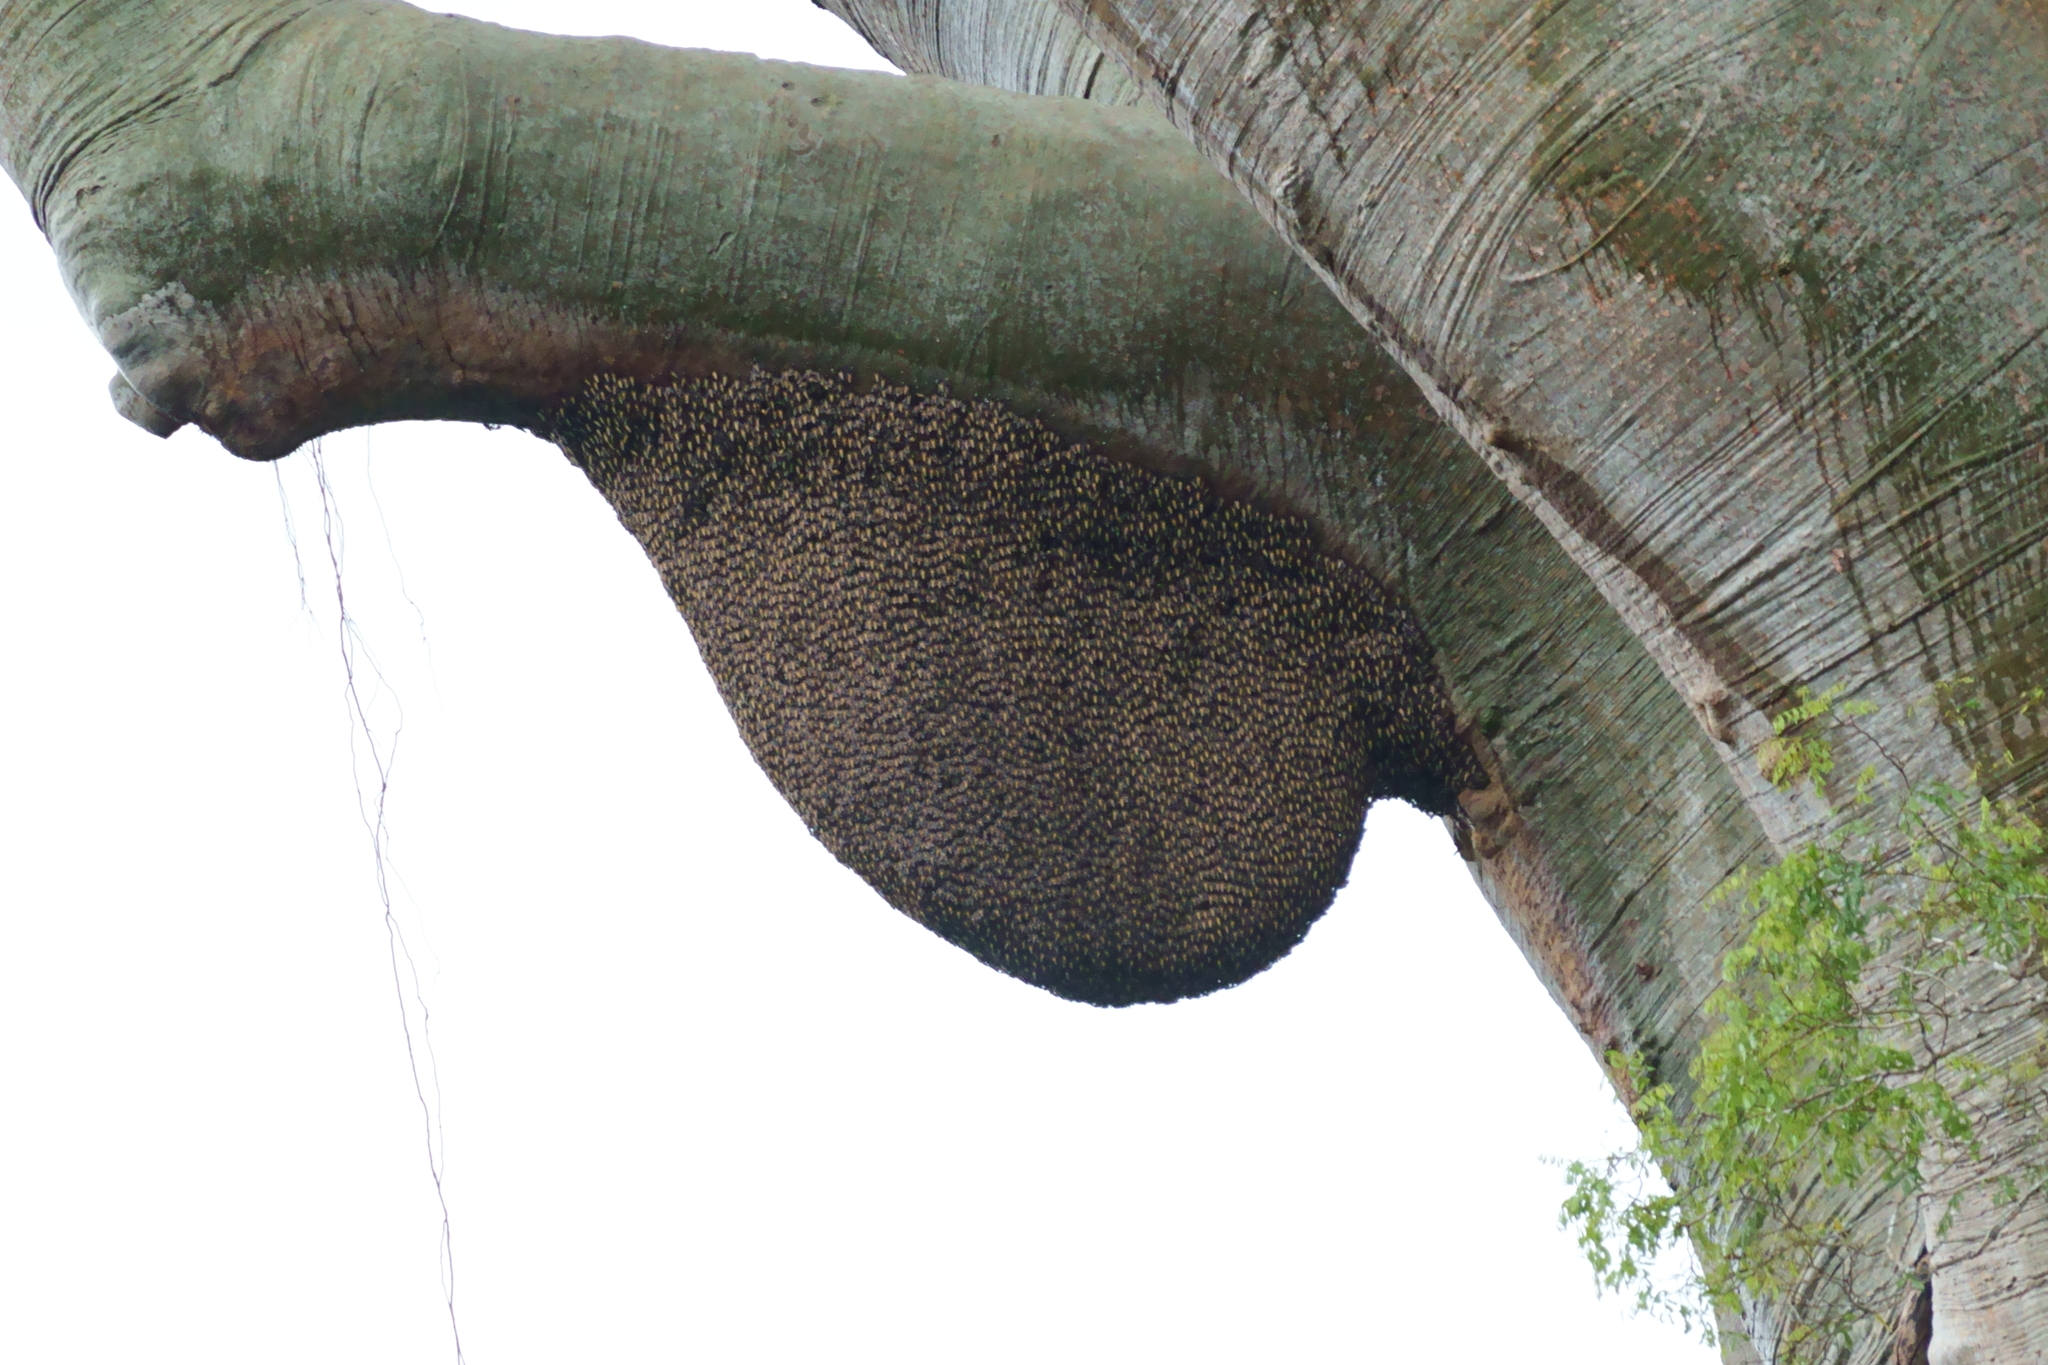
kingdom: Animalia
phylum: Arthropoda
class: Insecta
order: Hymenoptera
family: Apidae
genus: Apis
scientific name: Apis dorsata
